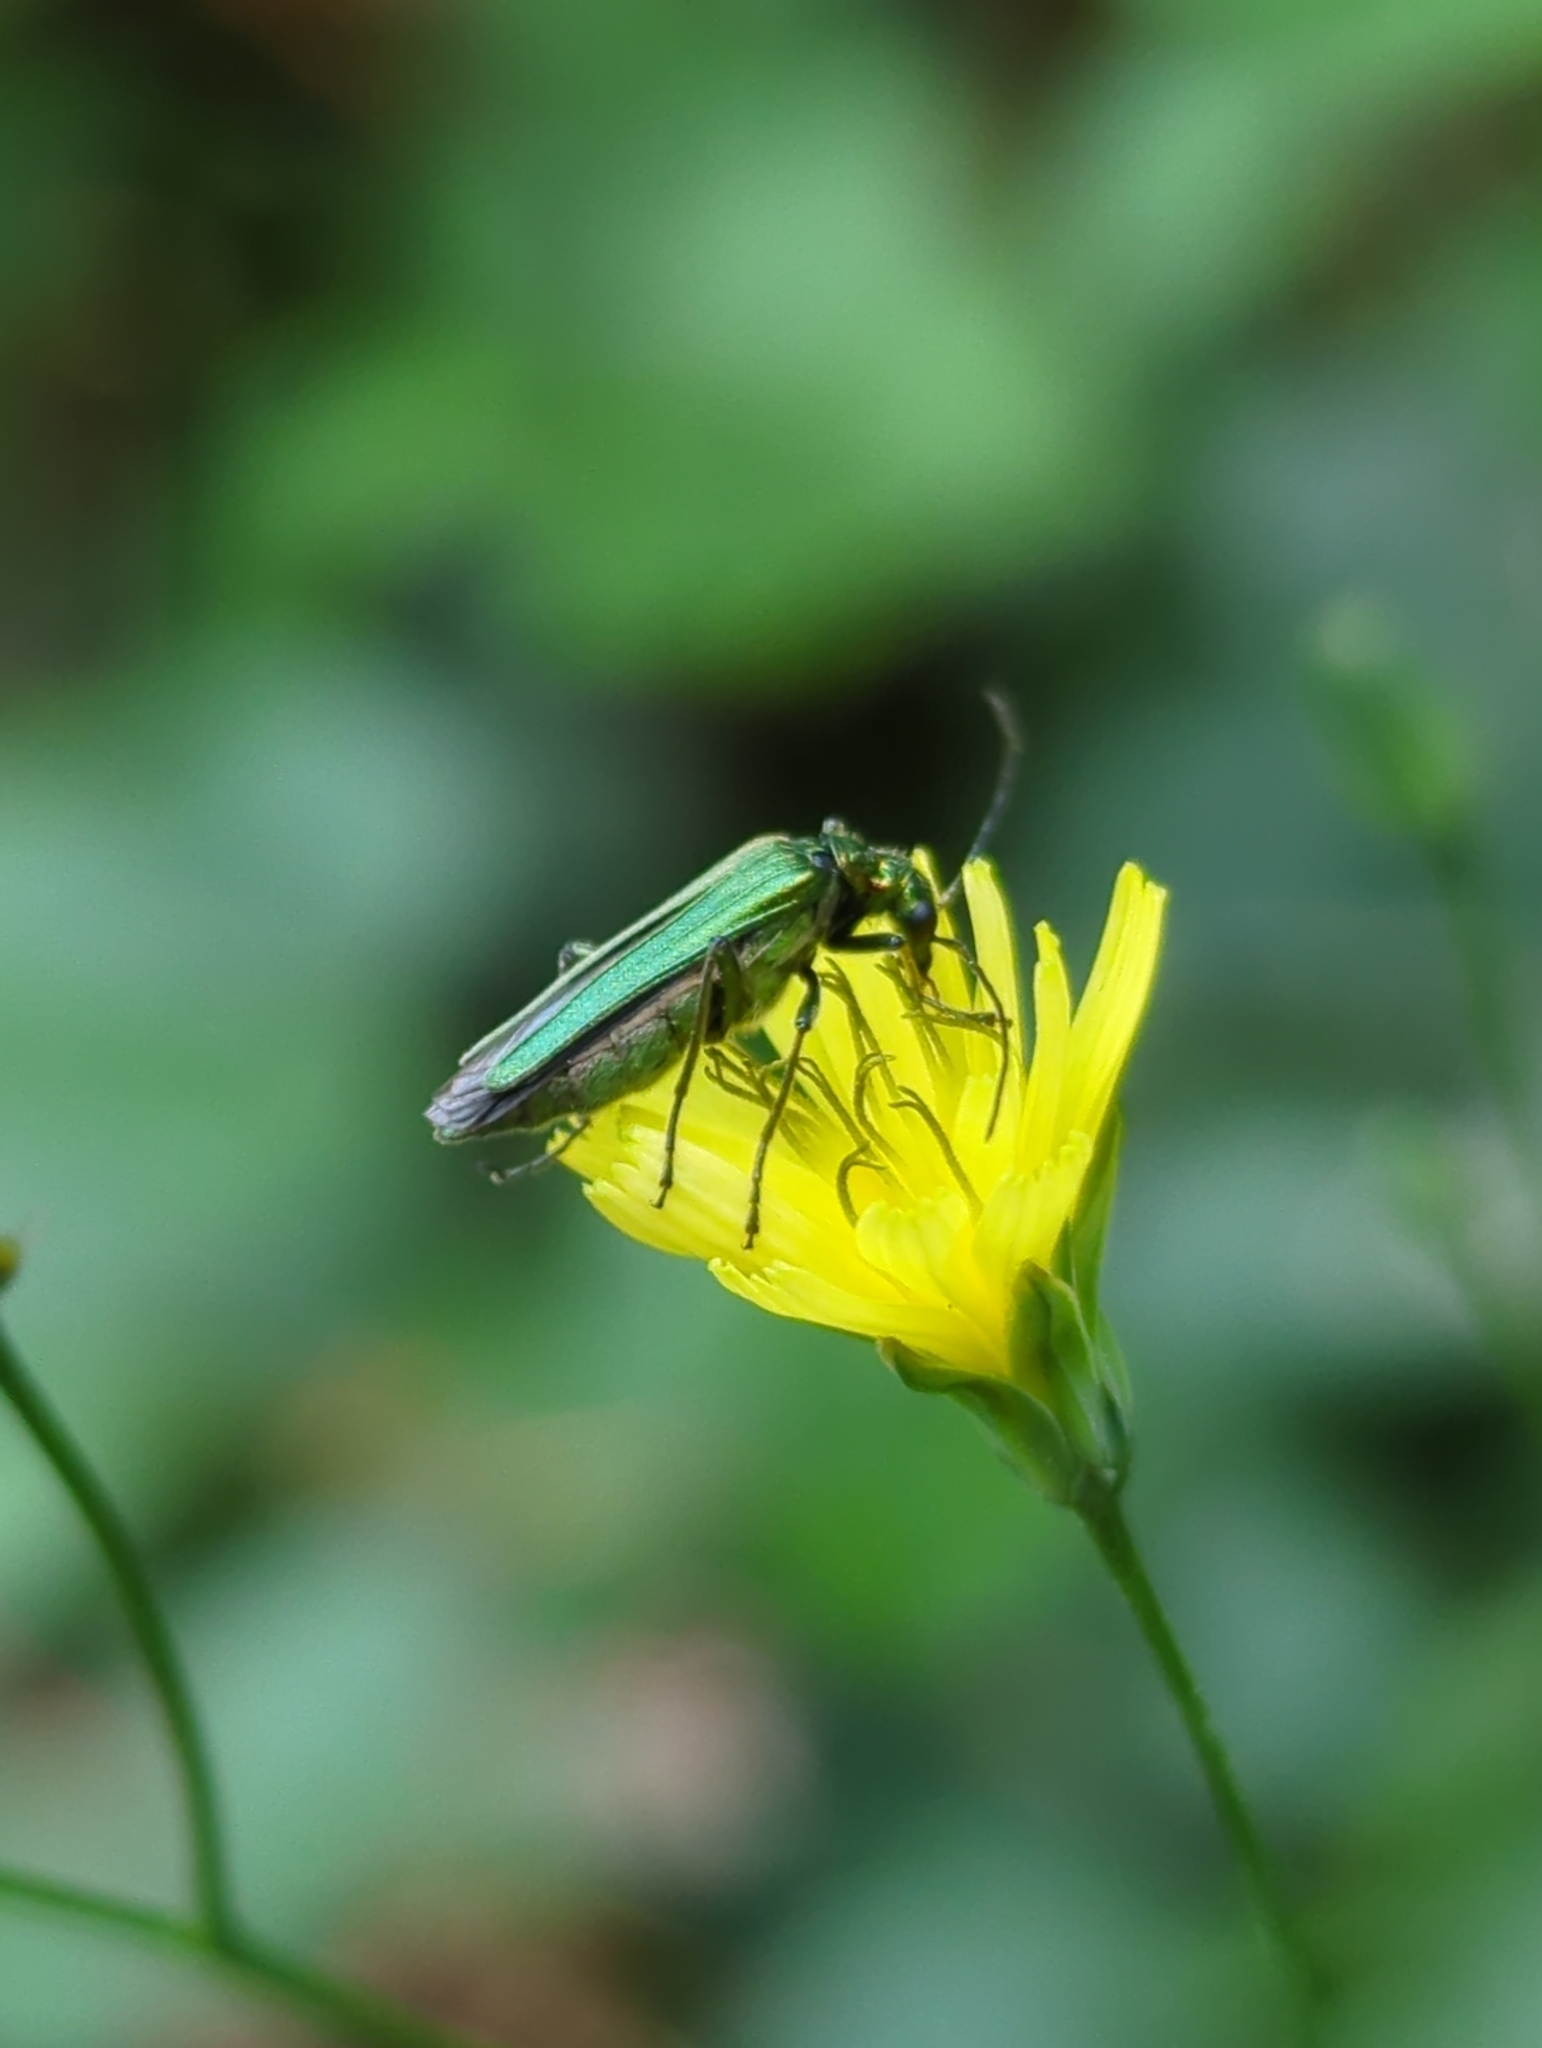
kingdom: Animalia
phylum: Arthropoda
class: Insecta
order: Coleoptera
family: Oedemeridae
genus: Oedemera
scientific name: Oedemera nobilis
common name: Swollen-thighed beetle
